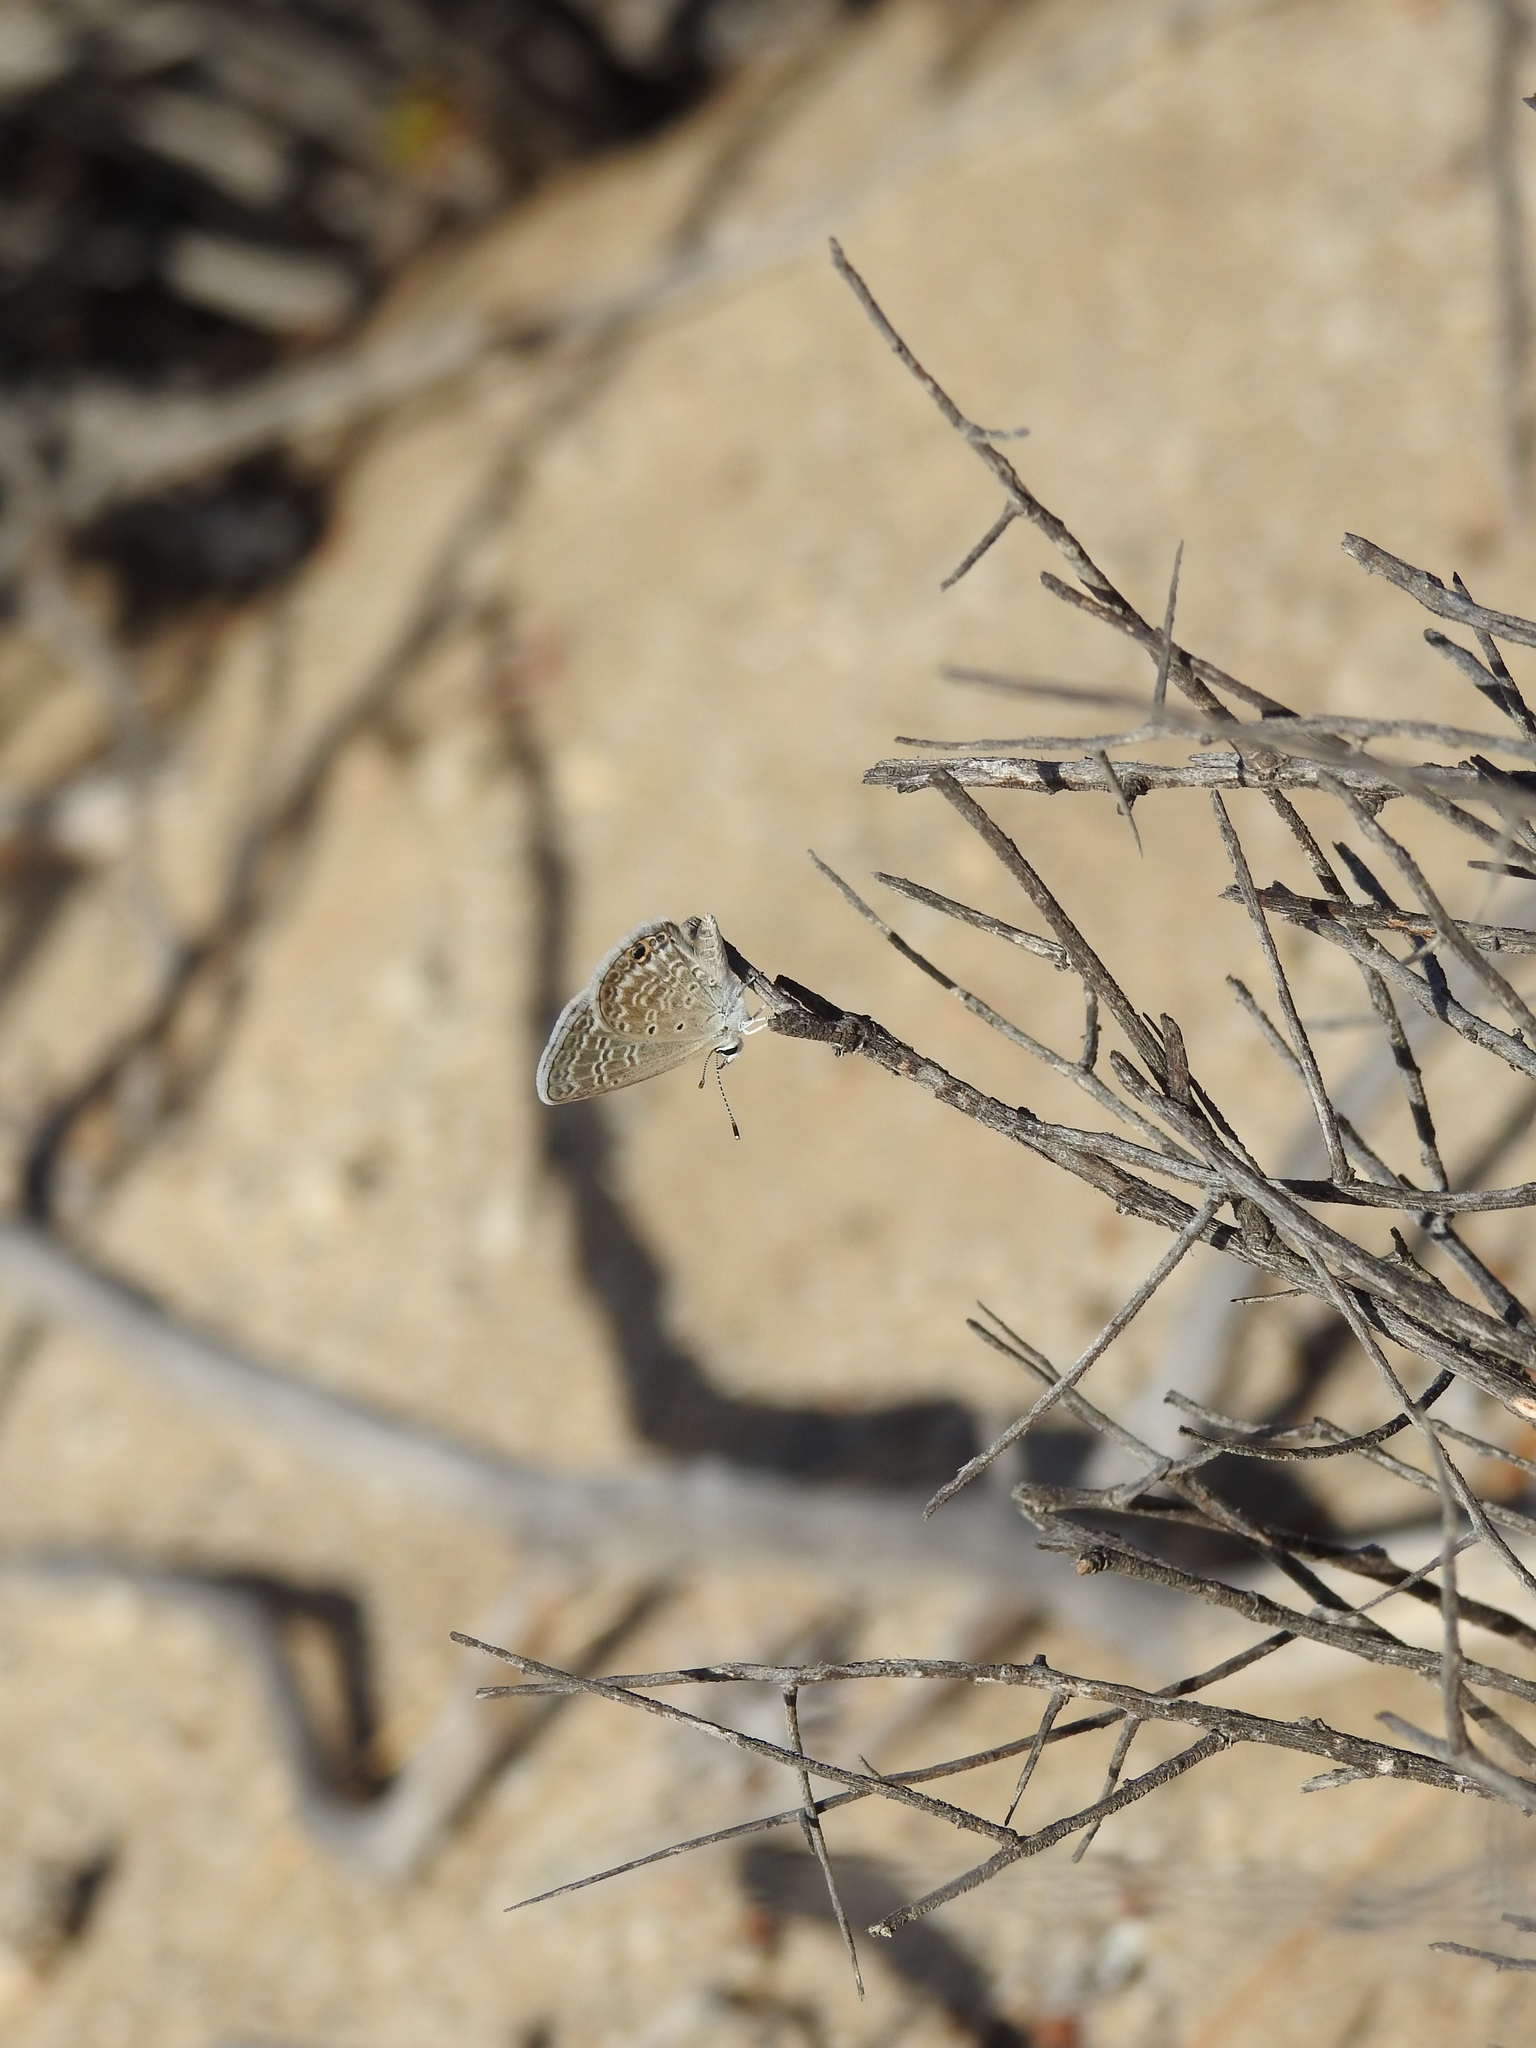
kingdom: Animalia
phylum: Arthropoda
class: Insecta
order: Lepidoptera
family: Lycaenidae
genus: Hemiargus
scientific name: Hemiargus ceraunus
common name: Ceraunus blue
